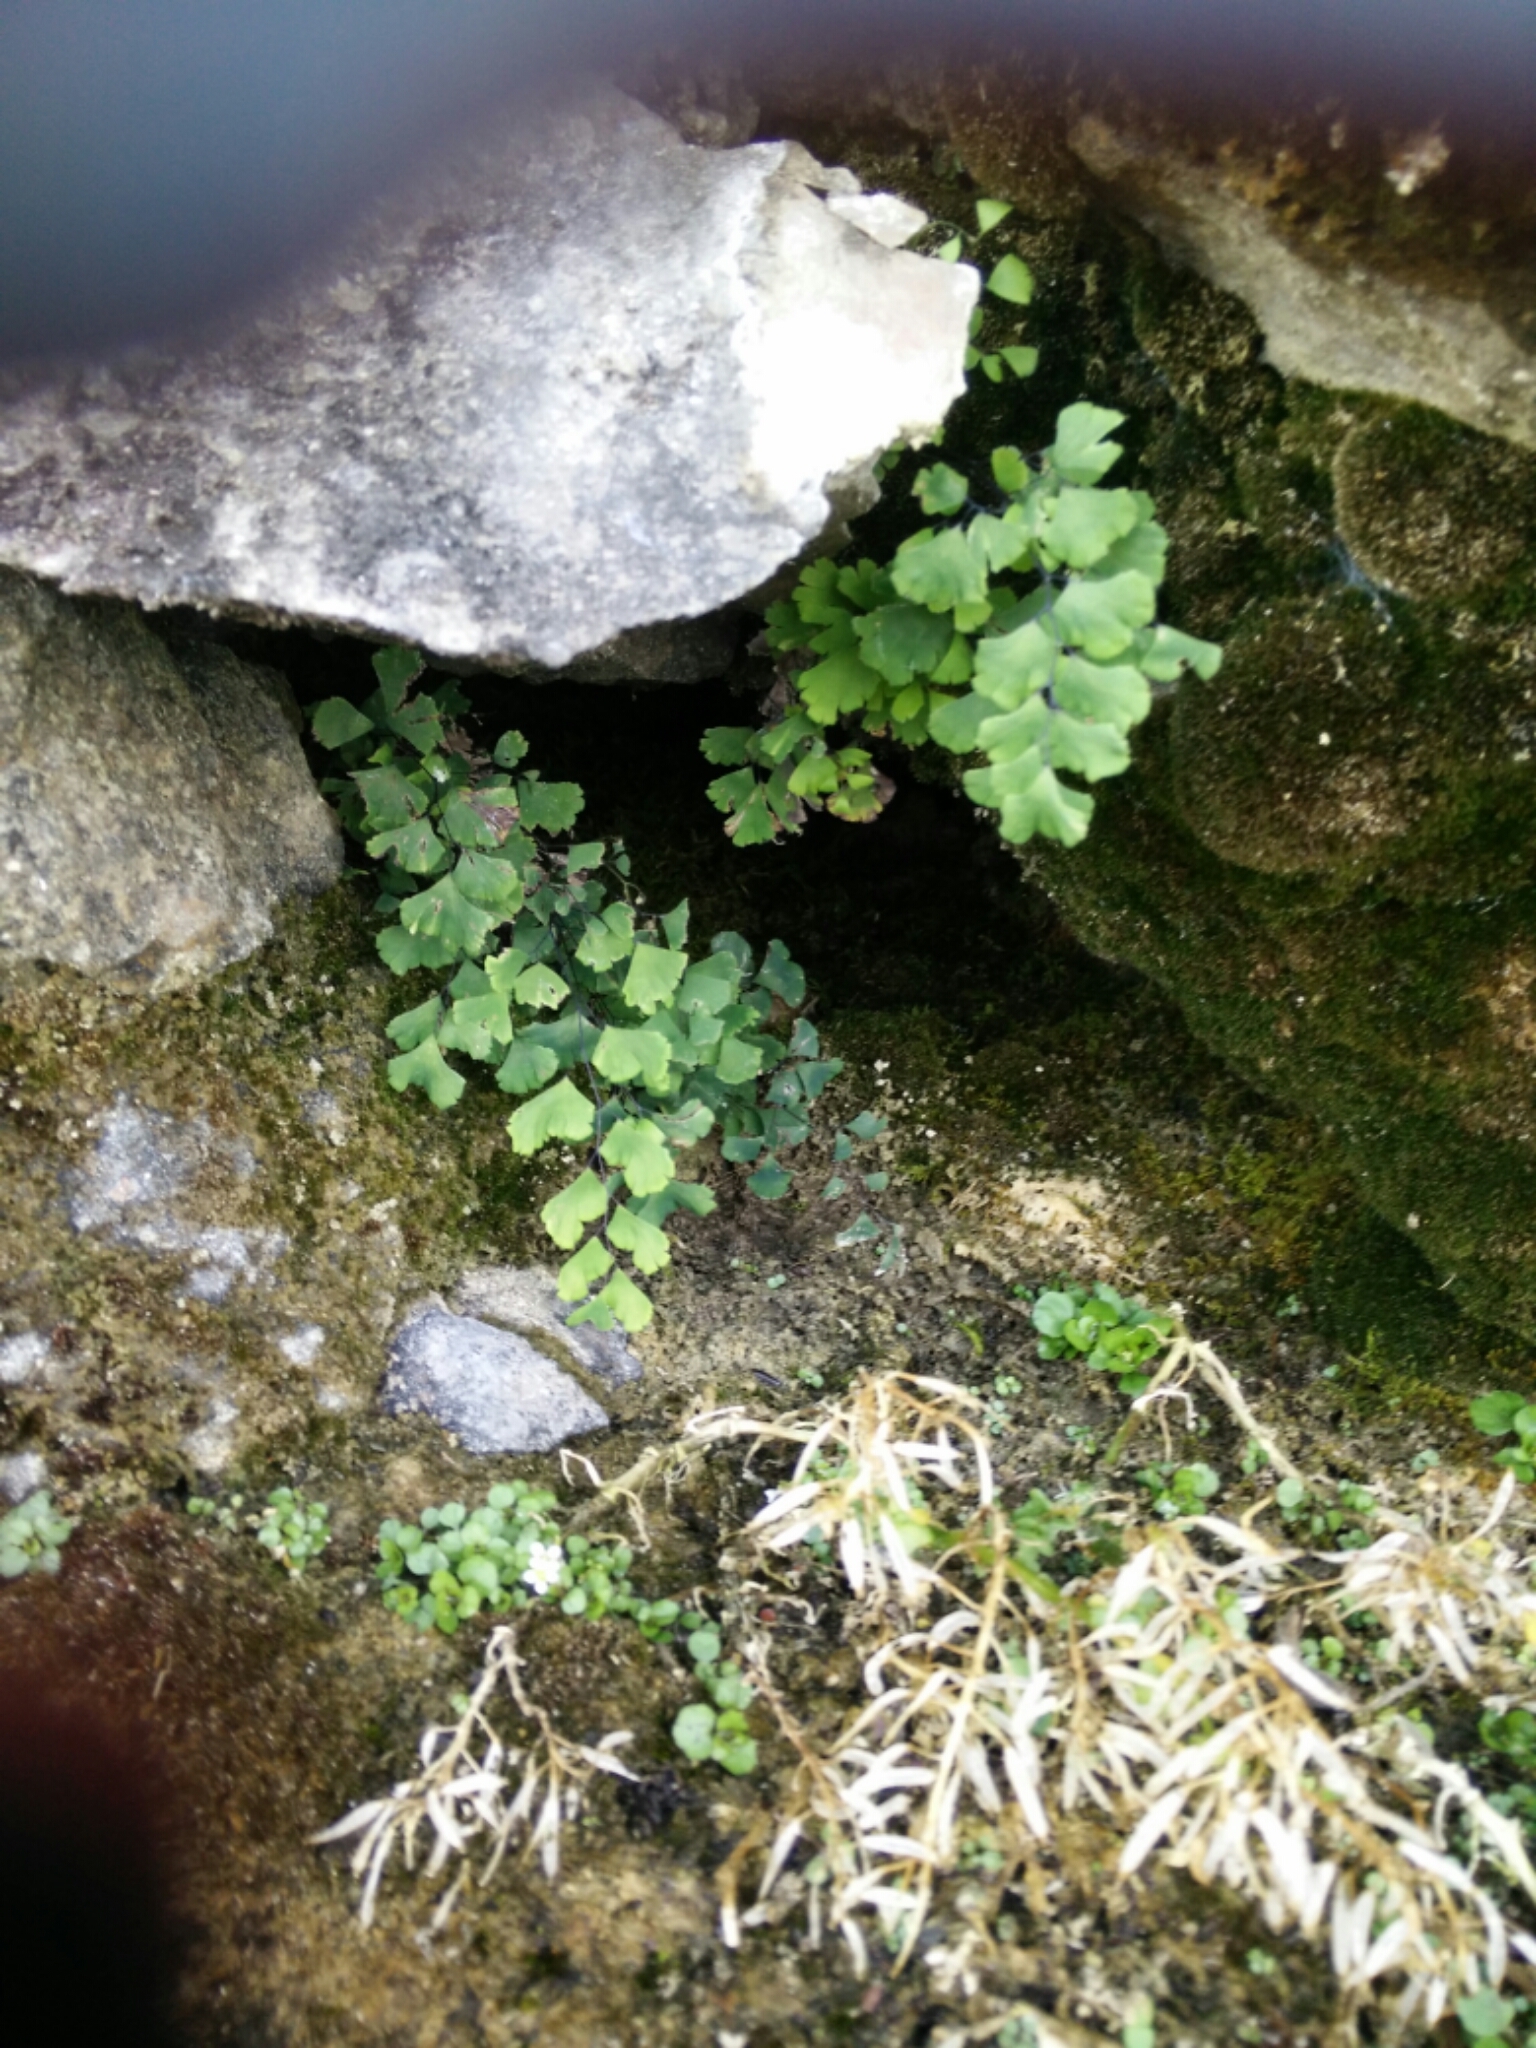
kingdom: Plantae
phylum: Tracheophyta
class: Polypodiopsida
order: Polypodiales
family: Pteridaceae
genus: Adiantum
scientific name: Adiantum capillus-veneris
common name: Maidenhair fern
